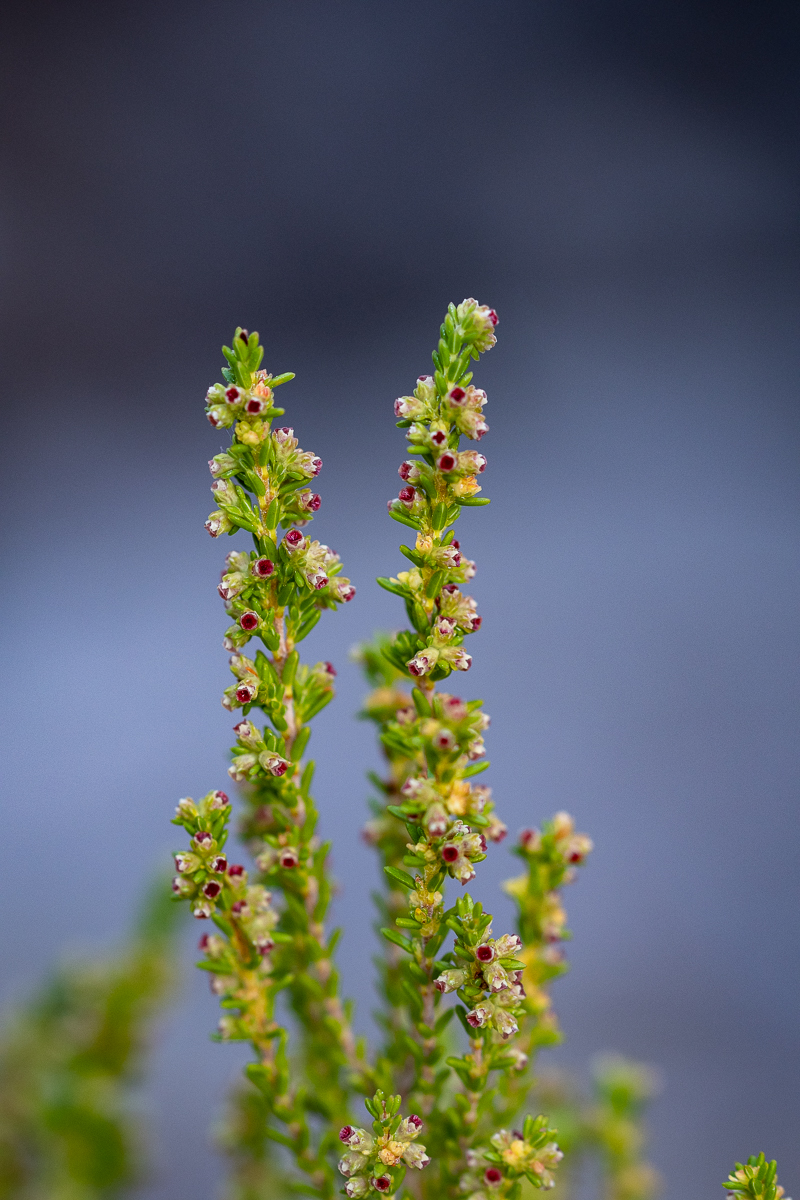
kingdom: Plantae
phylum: Tracheophyta
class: Magnoliopsida
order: Ericales
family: Ericaceae
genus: Erica
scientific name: Erica serrata
